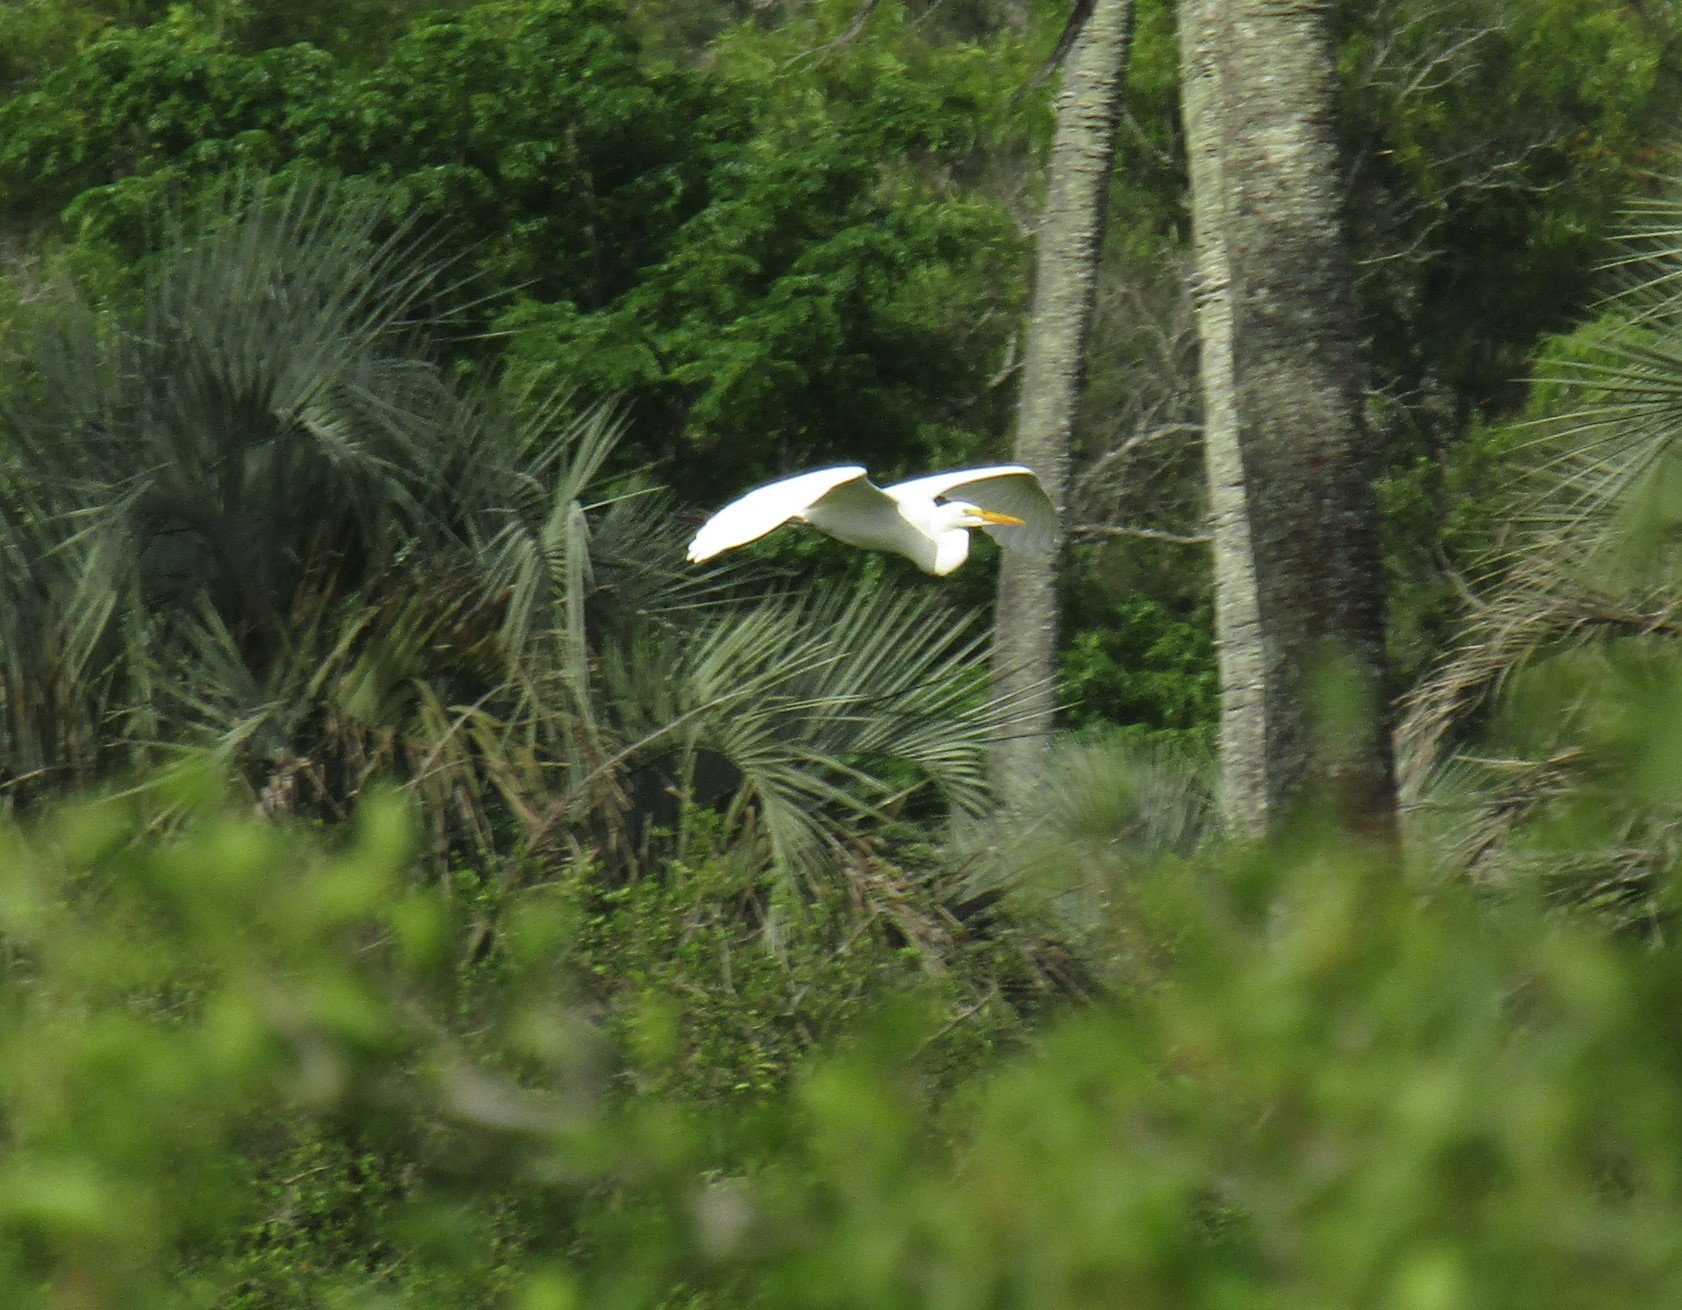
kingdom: Animalia
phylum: Chordata
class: Aves
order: Pelecaniformes
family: Ardeidae
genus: Ardea
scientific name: Ardea alba
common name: Great egret
